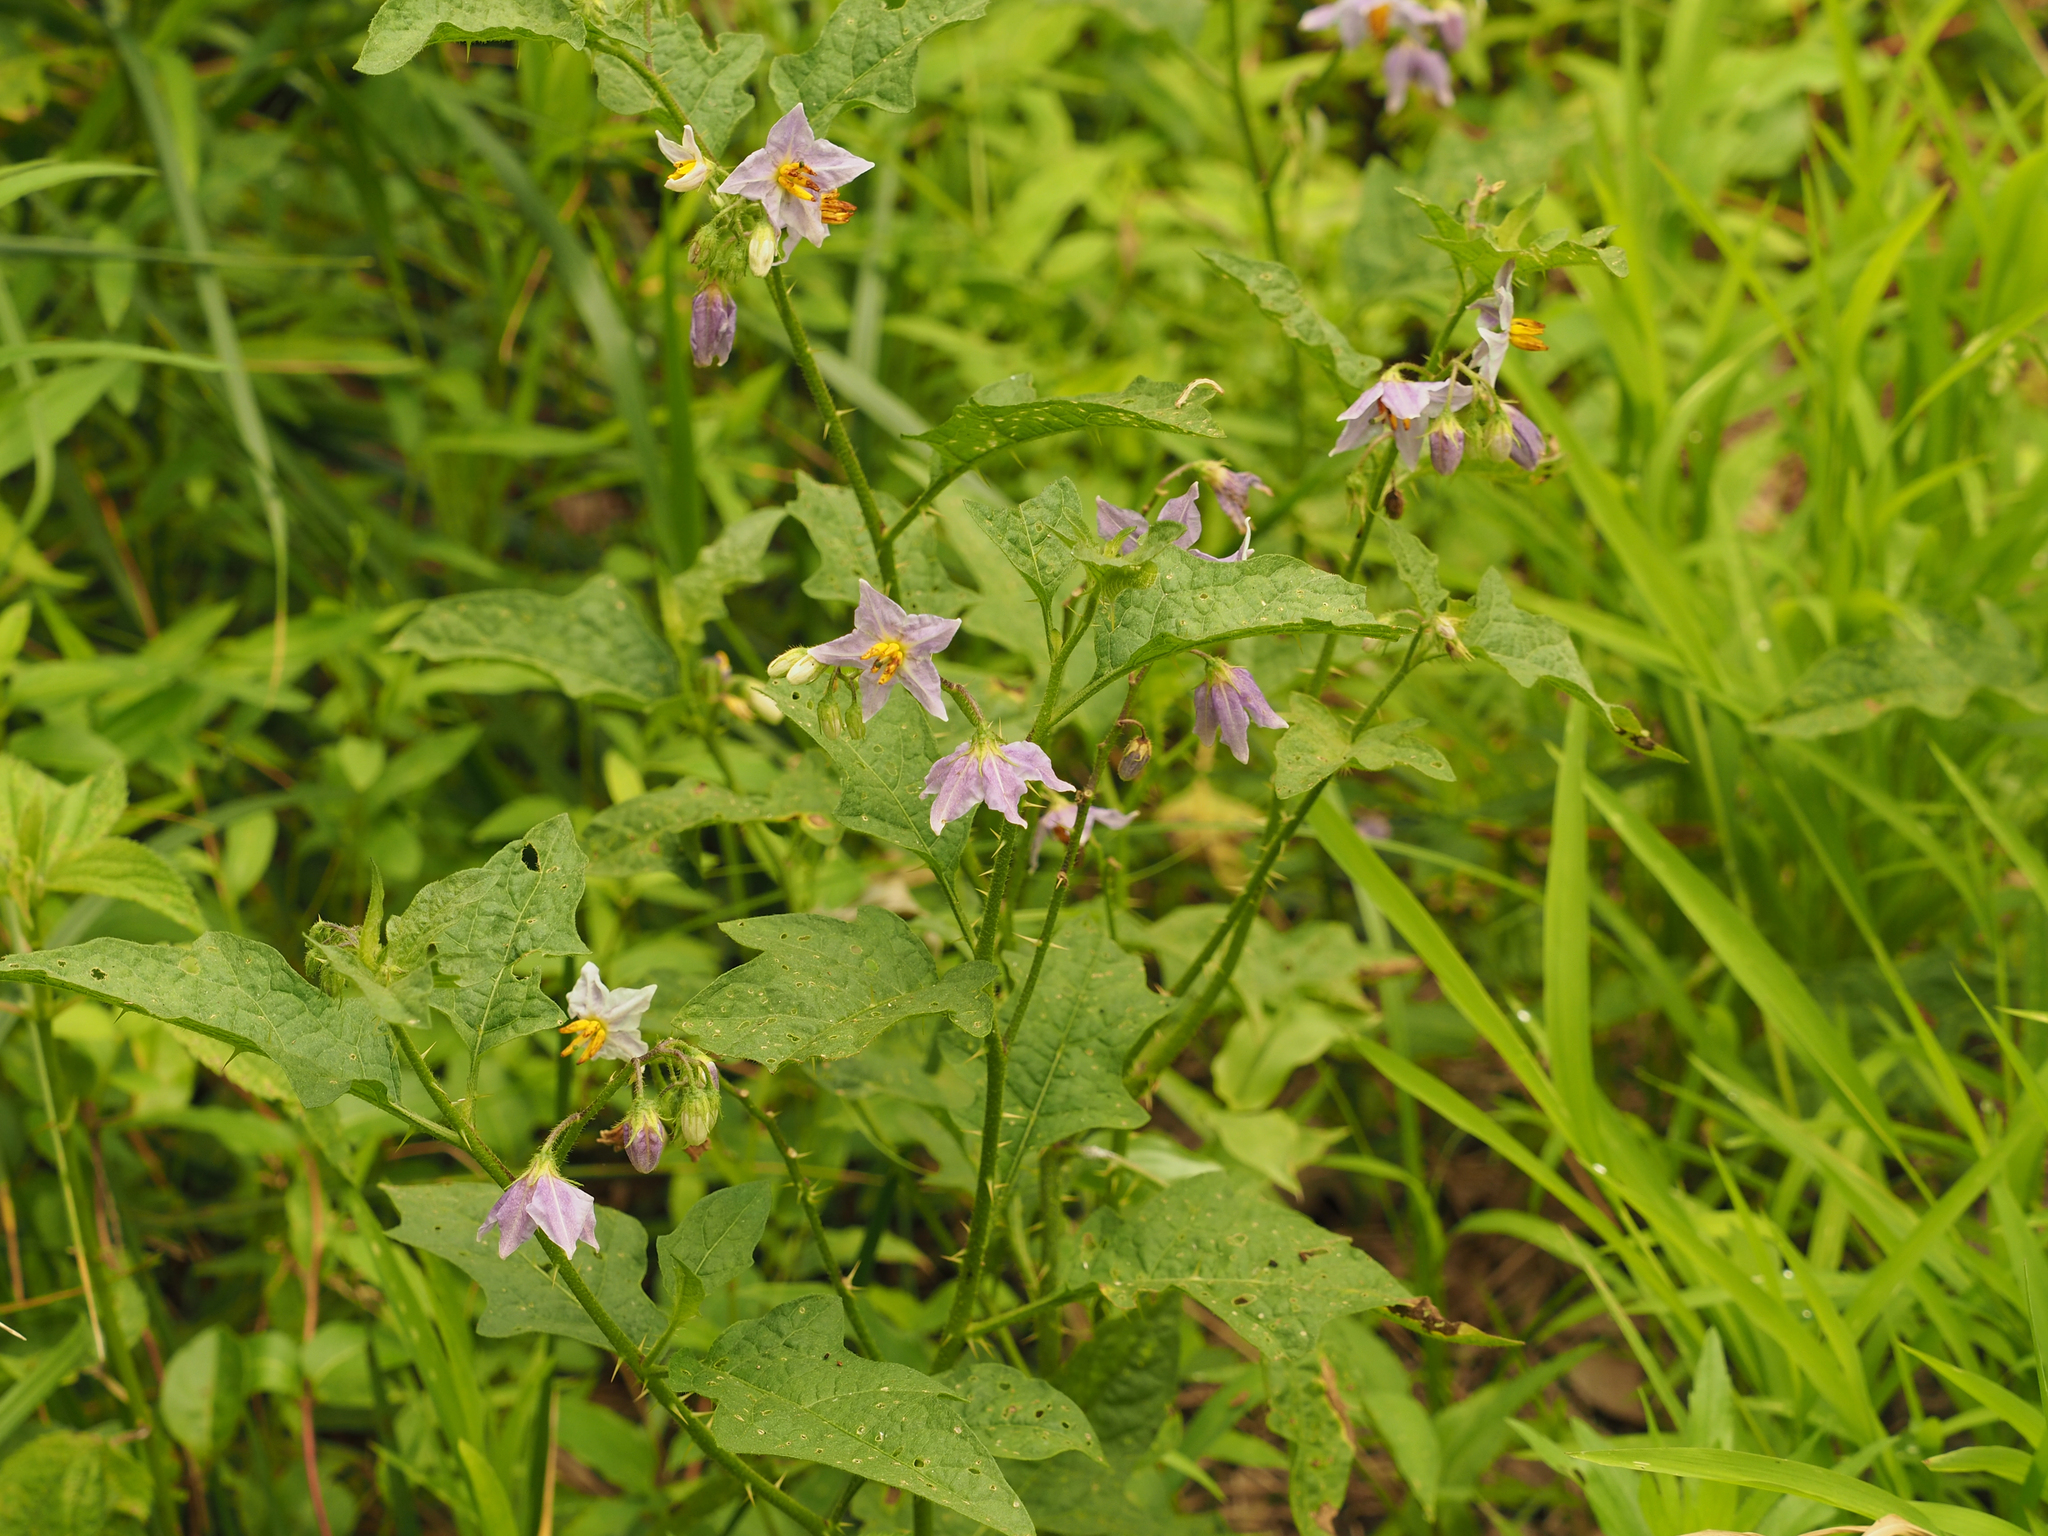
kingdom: Plantae
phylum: Tracheophyta
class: Magnoliopsida
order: Solanales
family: Solanaceae
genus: Solanum
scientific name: Solanum carolinense
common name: Horse-nettle
